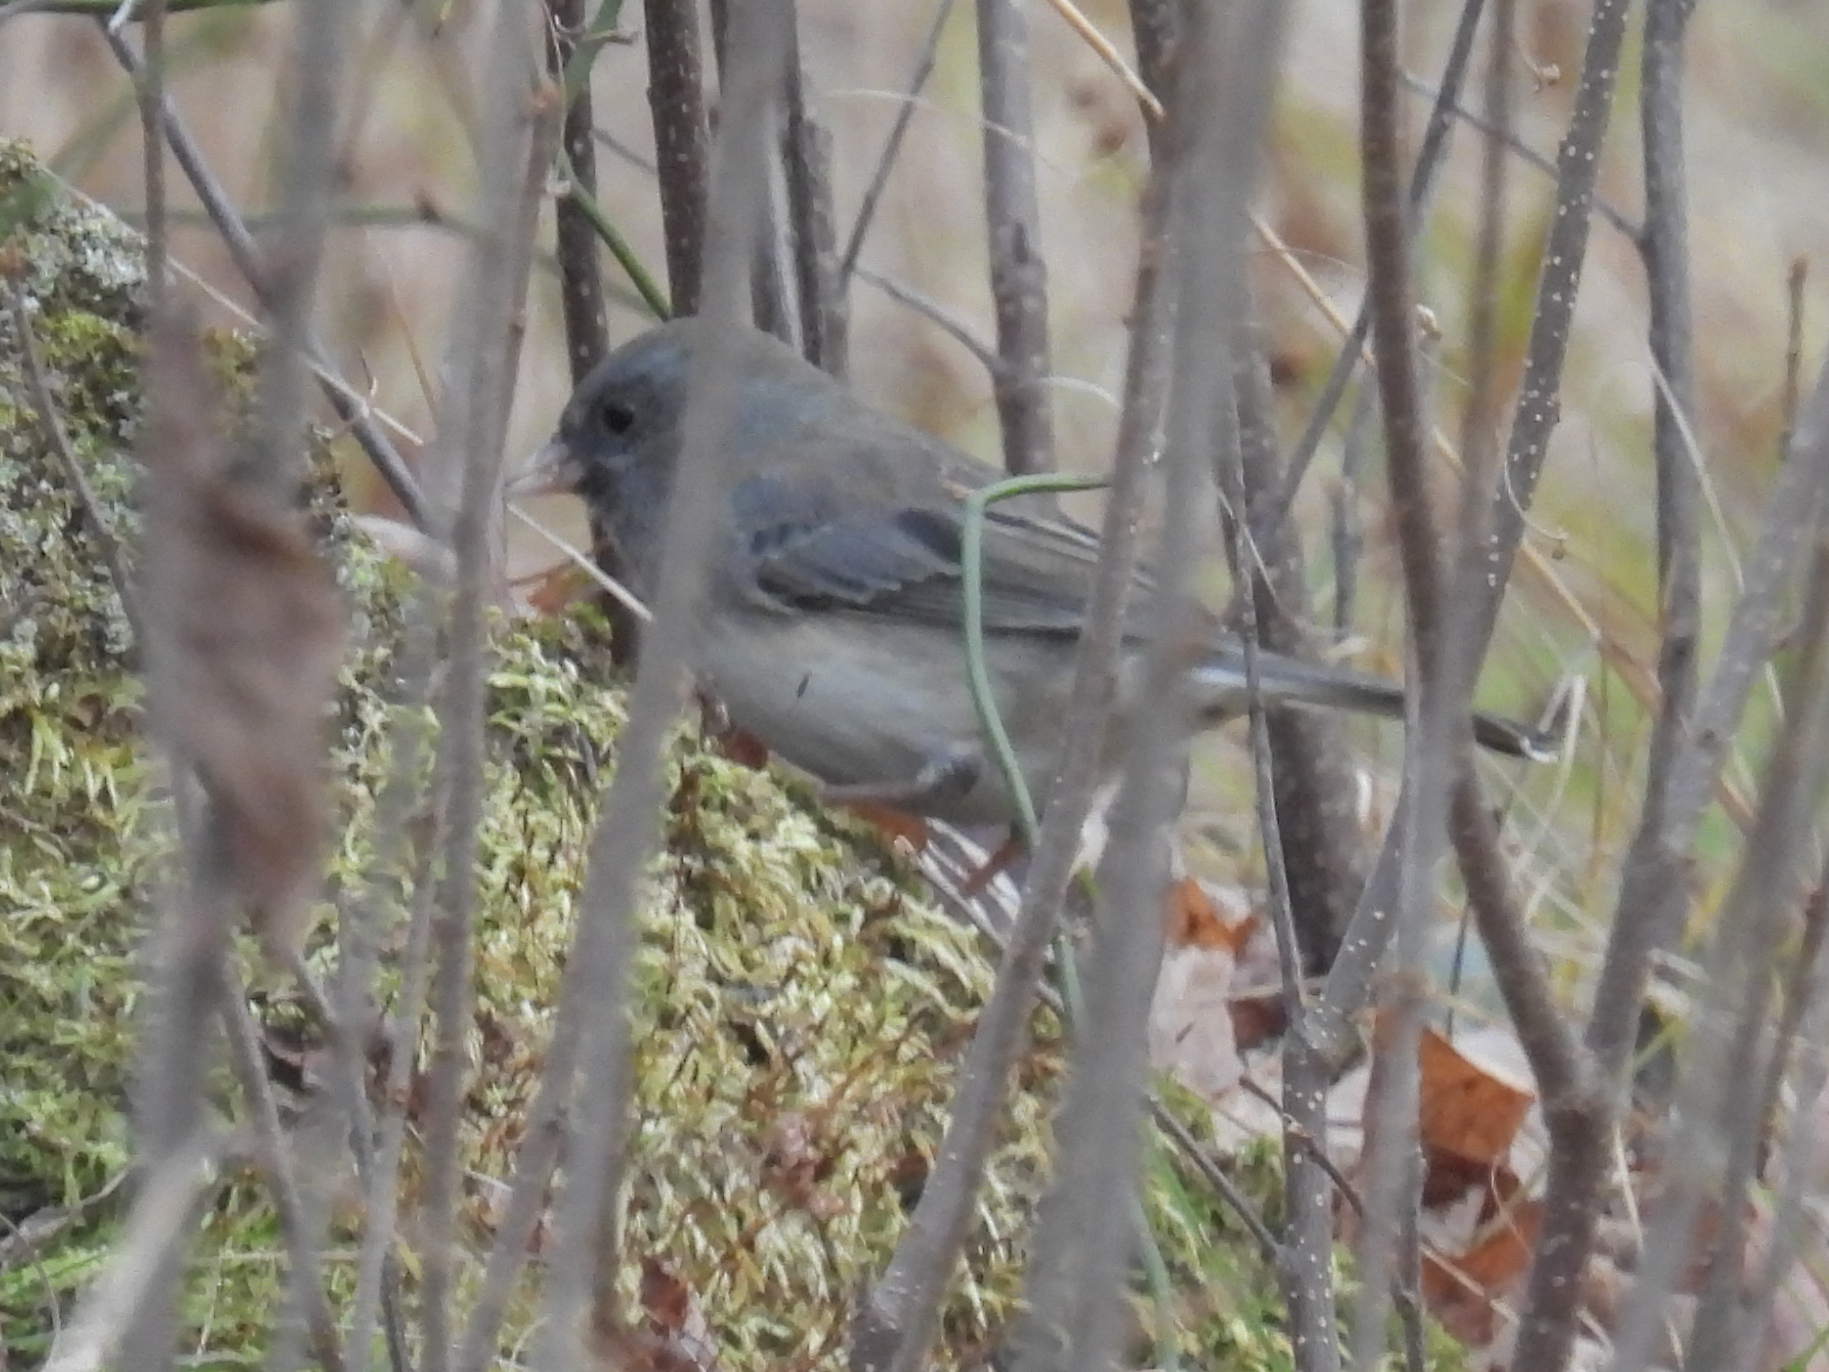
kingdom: Animalia
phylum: Chordata
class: Aves
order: Passeriformes
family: Passerellidae
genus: Junco
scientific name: Junco hyemalis
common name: Dark-eyed junco
